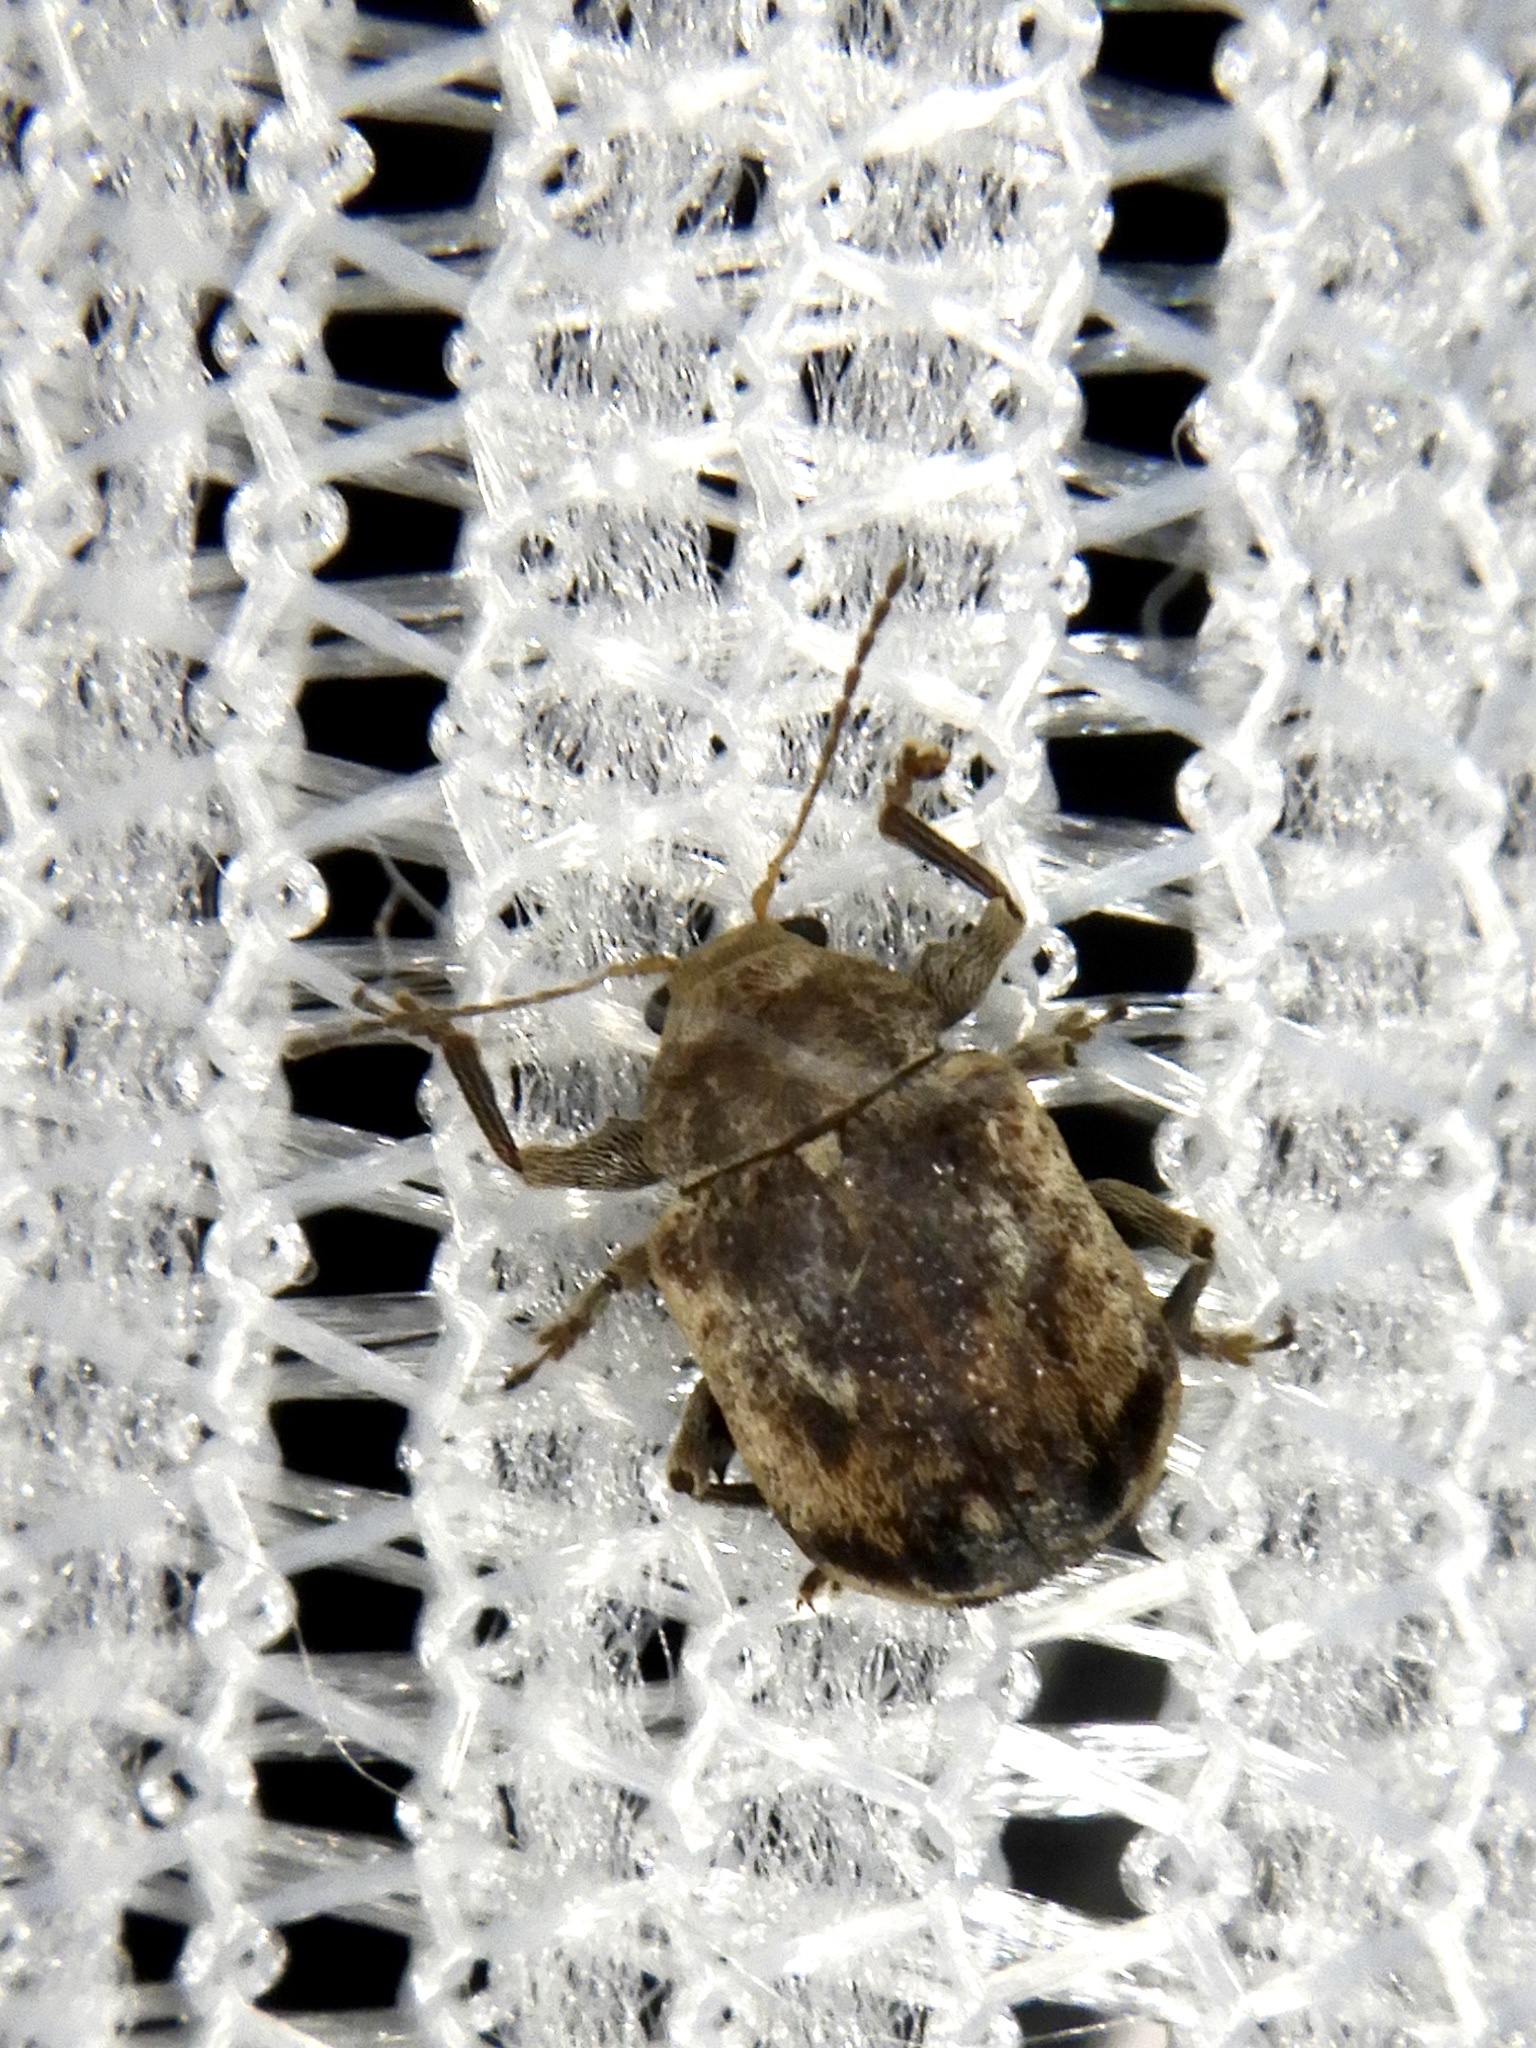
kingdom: Animalia
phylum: Arthropoda
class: Insecta
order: Coleoptera
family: Chrysomelidae
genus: Demotina
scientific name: Demotina
